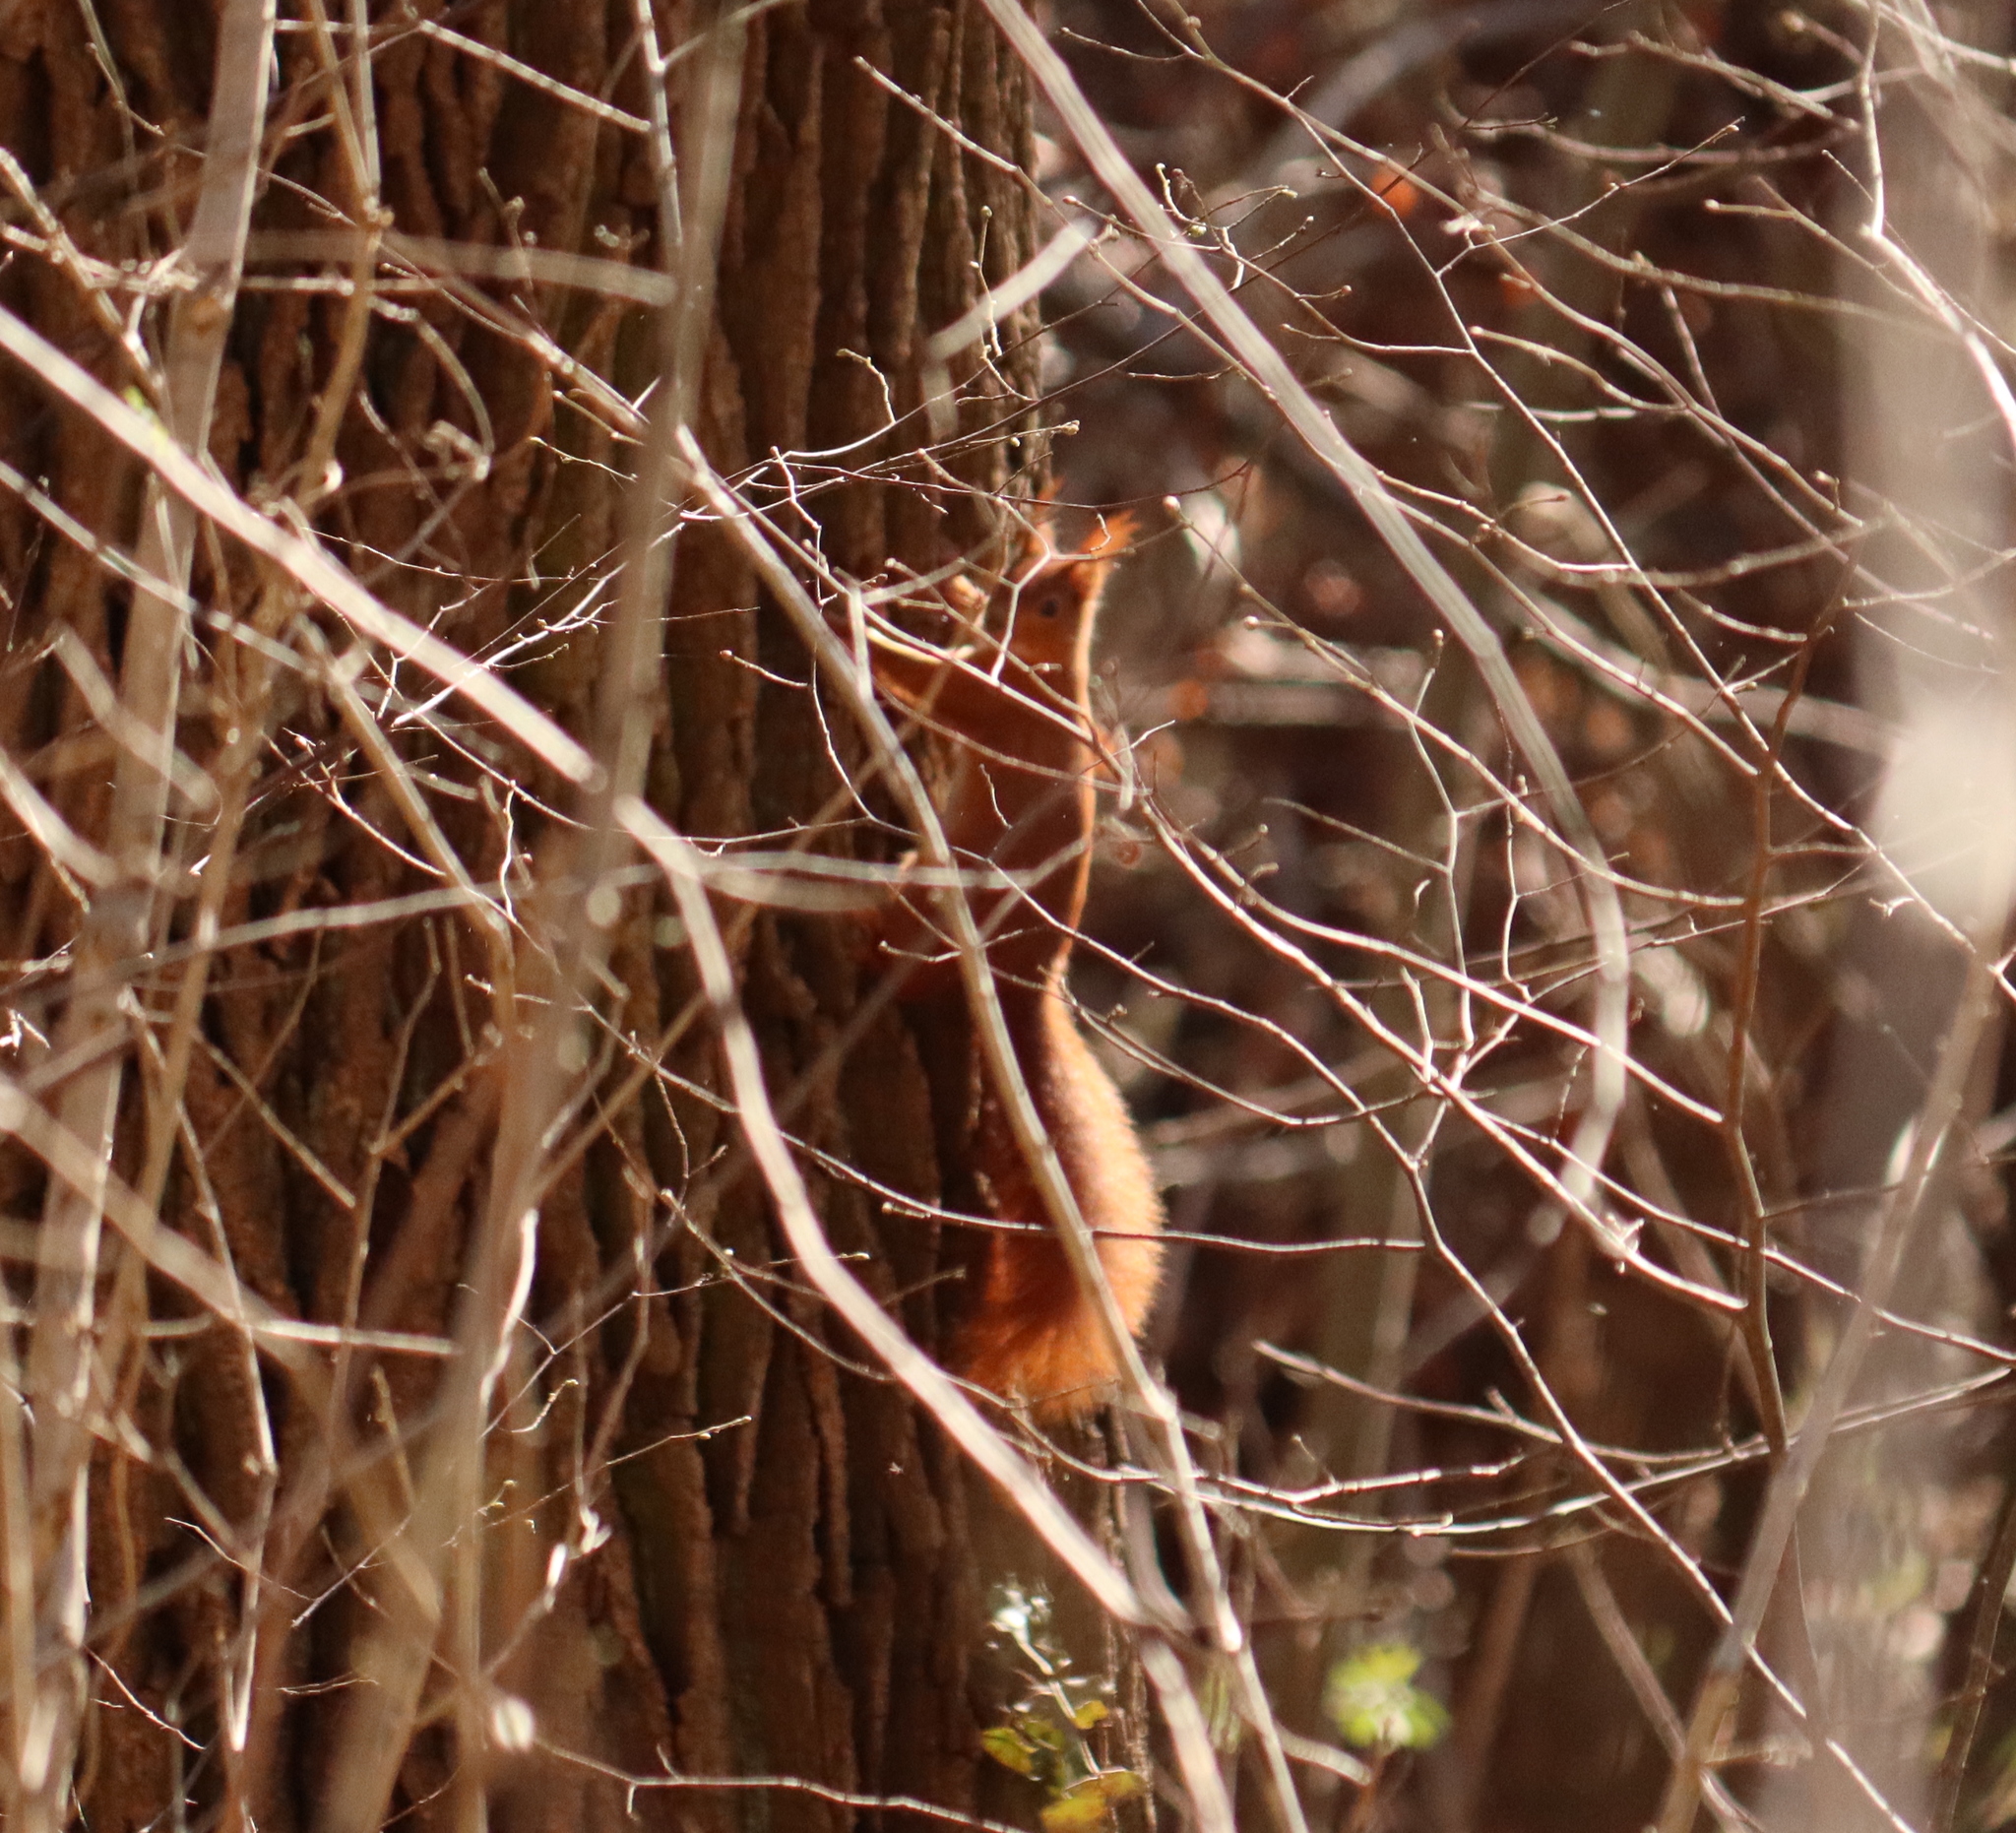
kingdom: Animalia
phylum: Chordata
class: Mammalia
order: Rodentia
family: Sciuridae
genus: Sciurus
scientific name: Sciurus vulgaris
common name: Eurasian red squirrel
